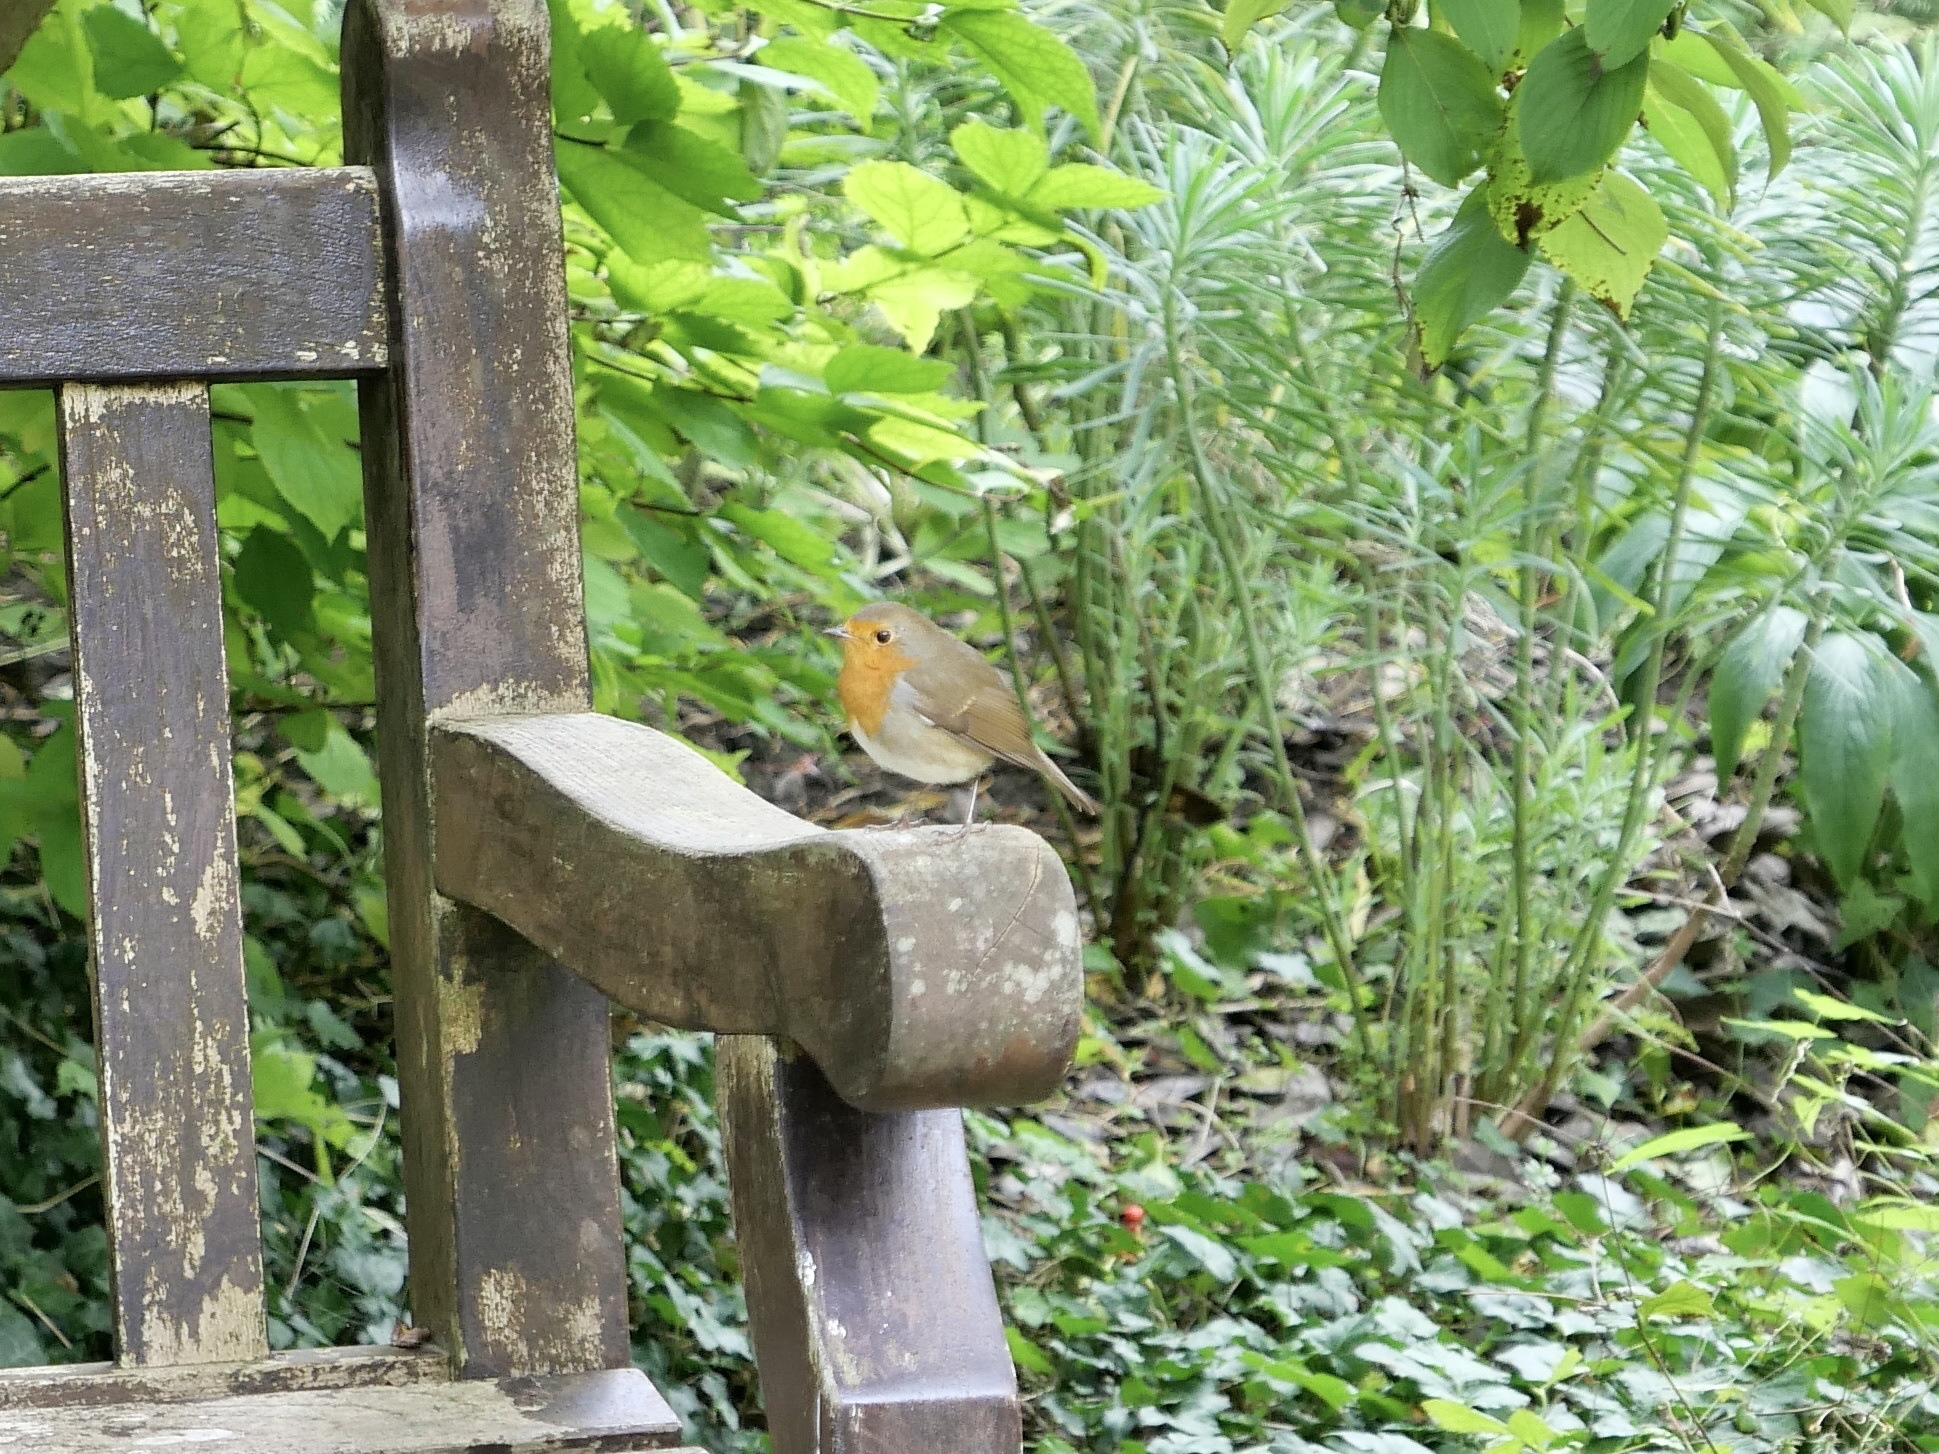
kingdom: Animalia
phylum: Chordata
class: Aves
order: Passeriformes
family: Muscicapidae
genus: Erithacus
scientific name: Erithacus rubecula
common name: European robin
